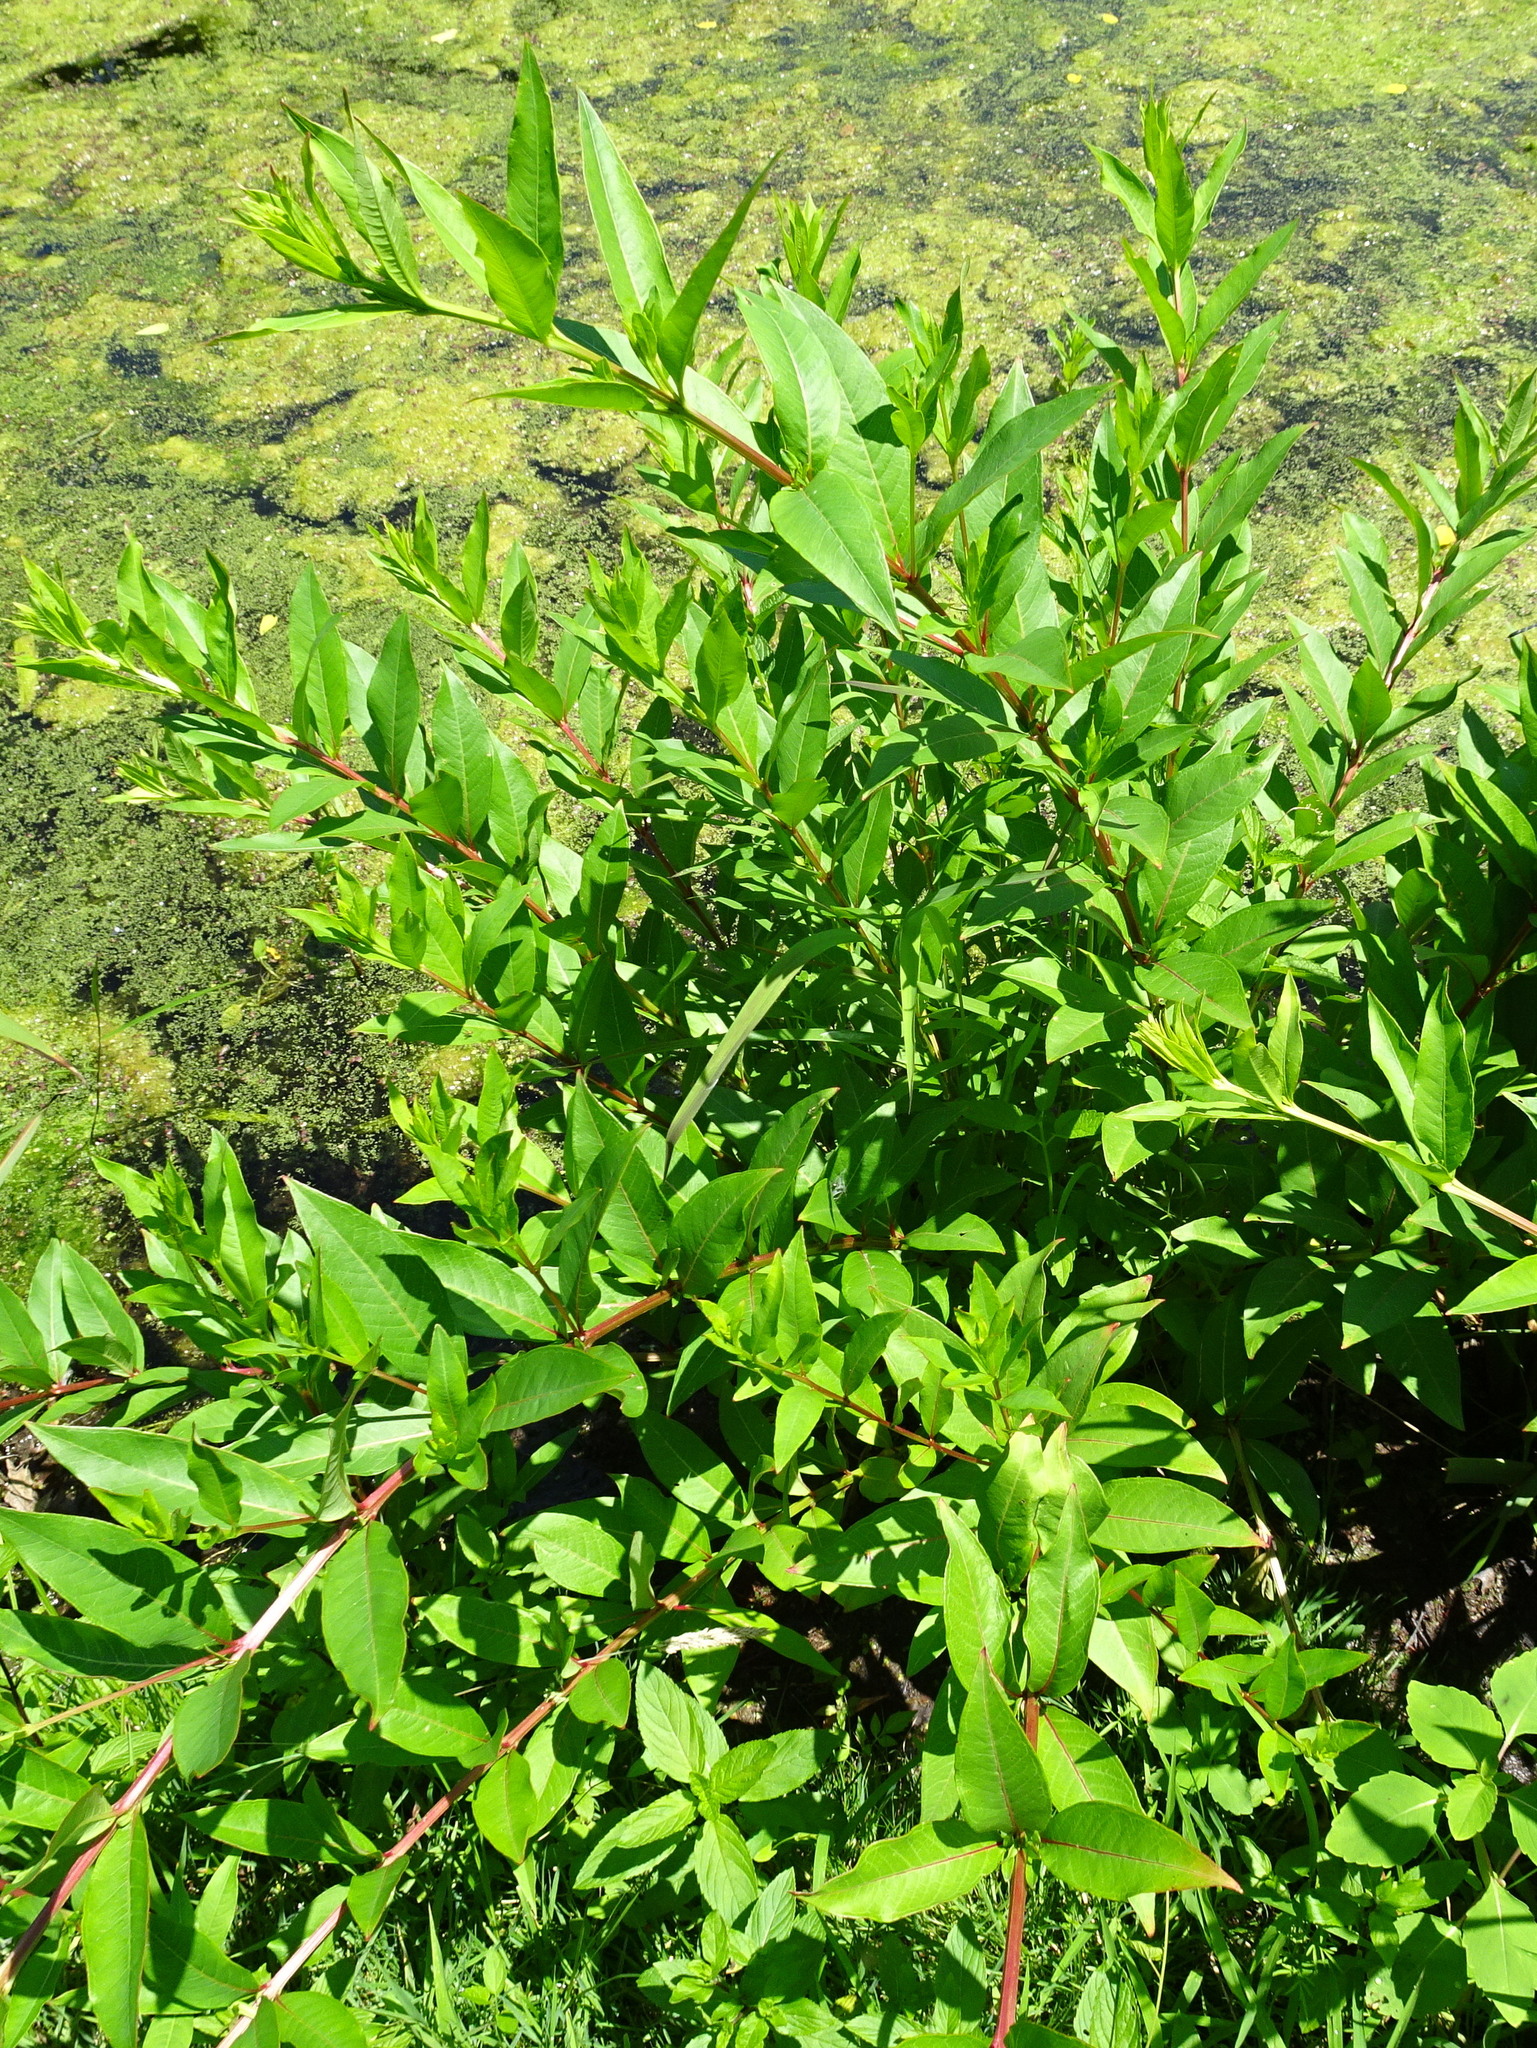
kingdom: Plantae
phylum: Tracheophyta
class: Magnoliopsida
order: Myrtales
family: Lythraceae
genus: Decodon
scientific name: Decodon verticillatus
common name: Hairy swamp loosestrife
